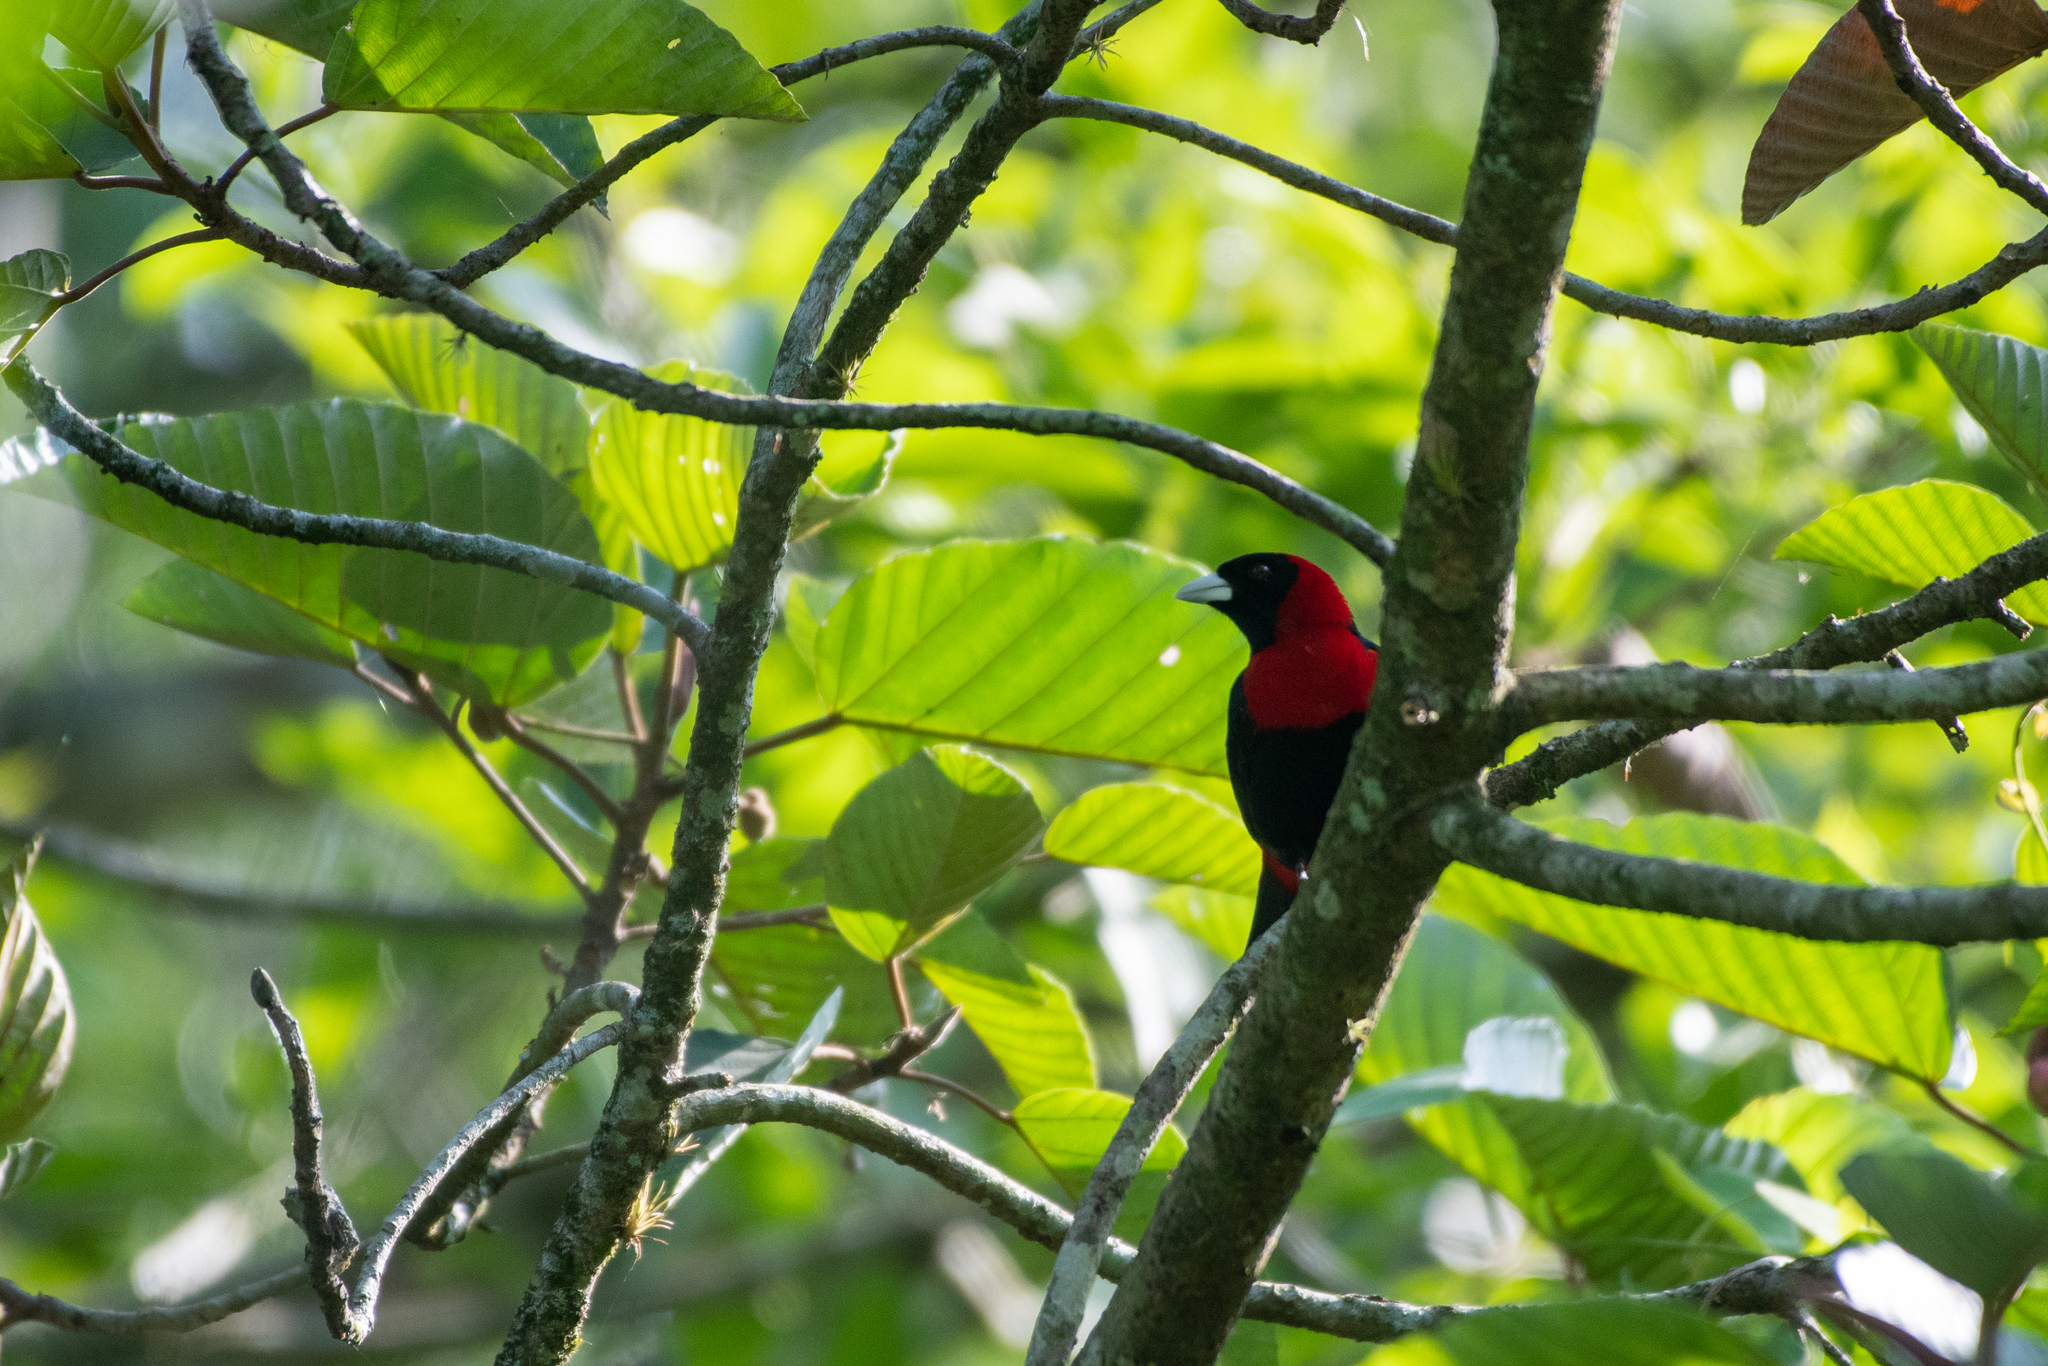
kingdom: Animalia
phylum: Chordata
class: Aves
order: Passeriformes
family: Thraupidae
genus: Ramphocelus
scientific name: Ramphocelus sanguinolentus
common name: Crimson-collared tanager
